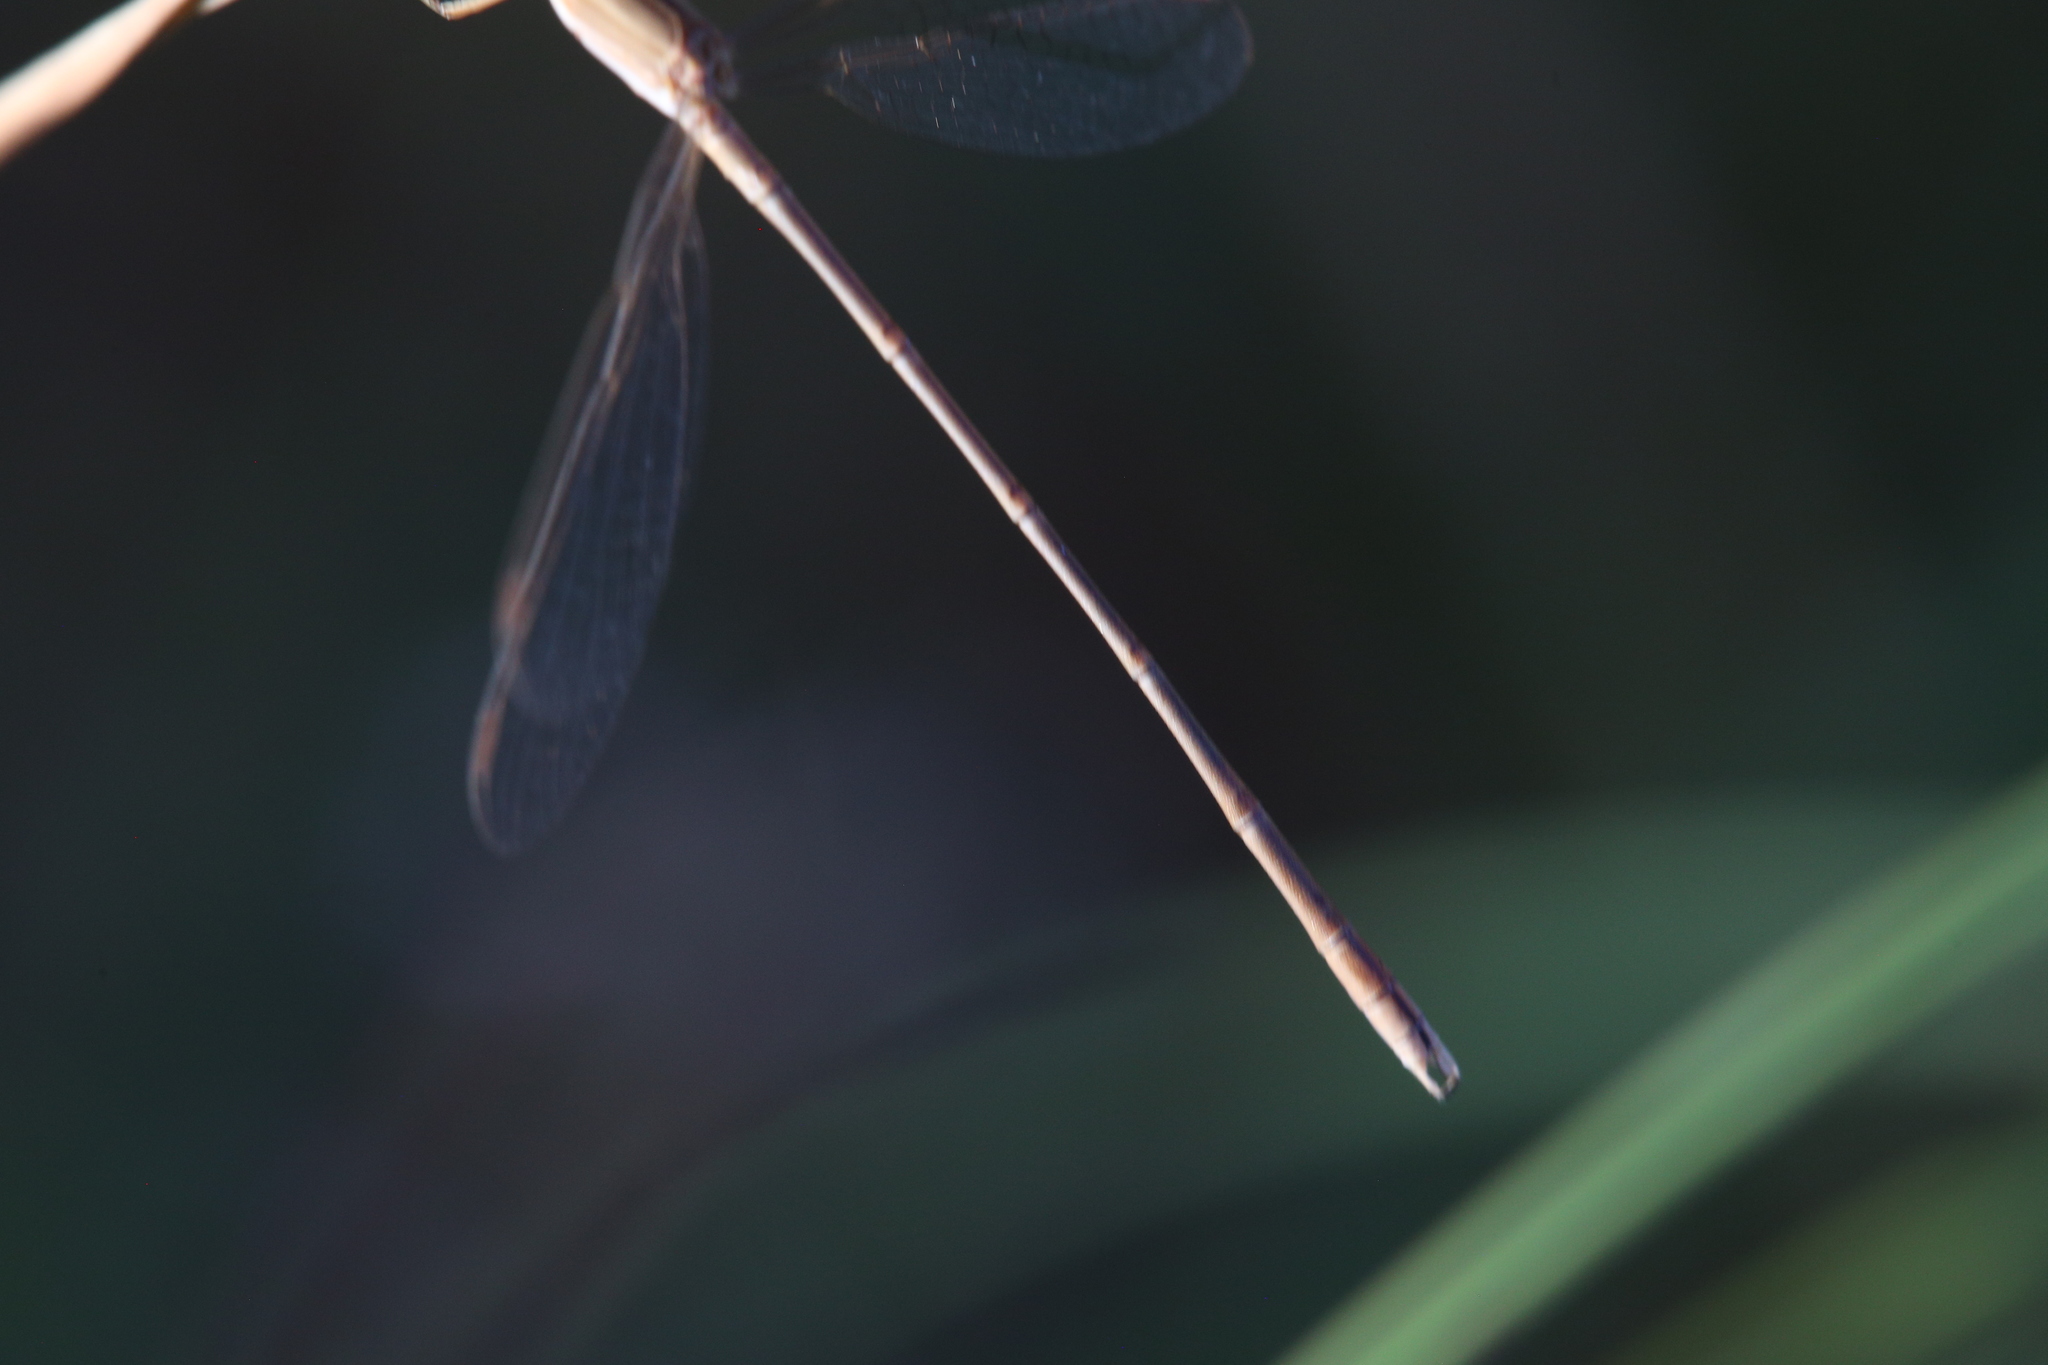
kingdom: Animalia
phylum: Arthropoda
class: Insecta
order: Odonata
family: Lestidae
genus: Lestes
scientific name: Lestes concinnus
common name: Dusky spreadwing
